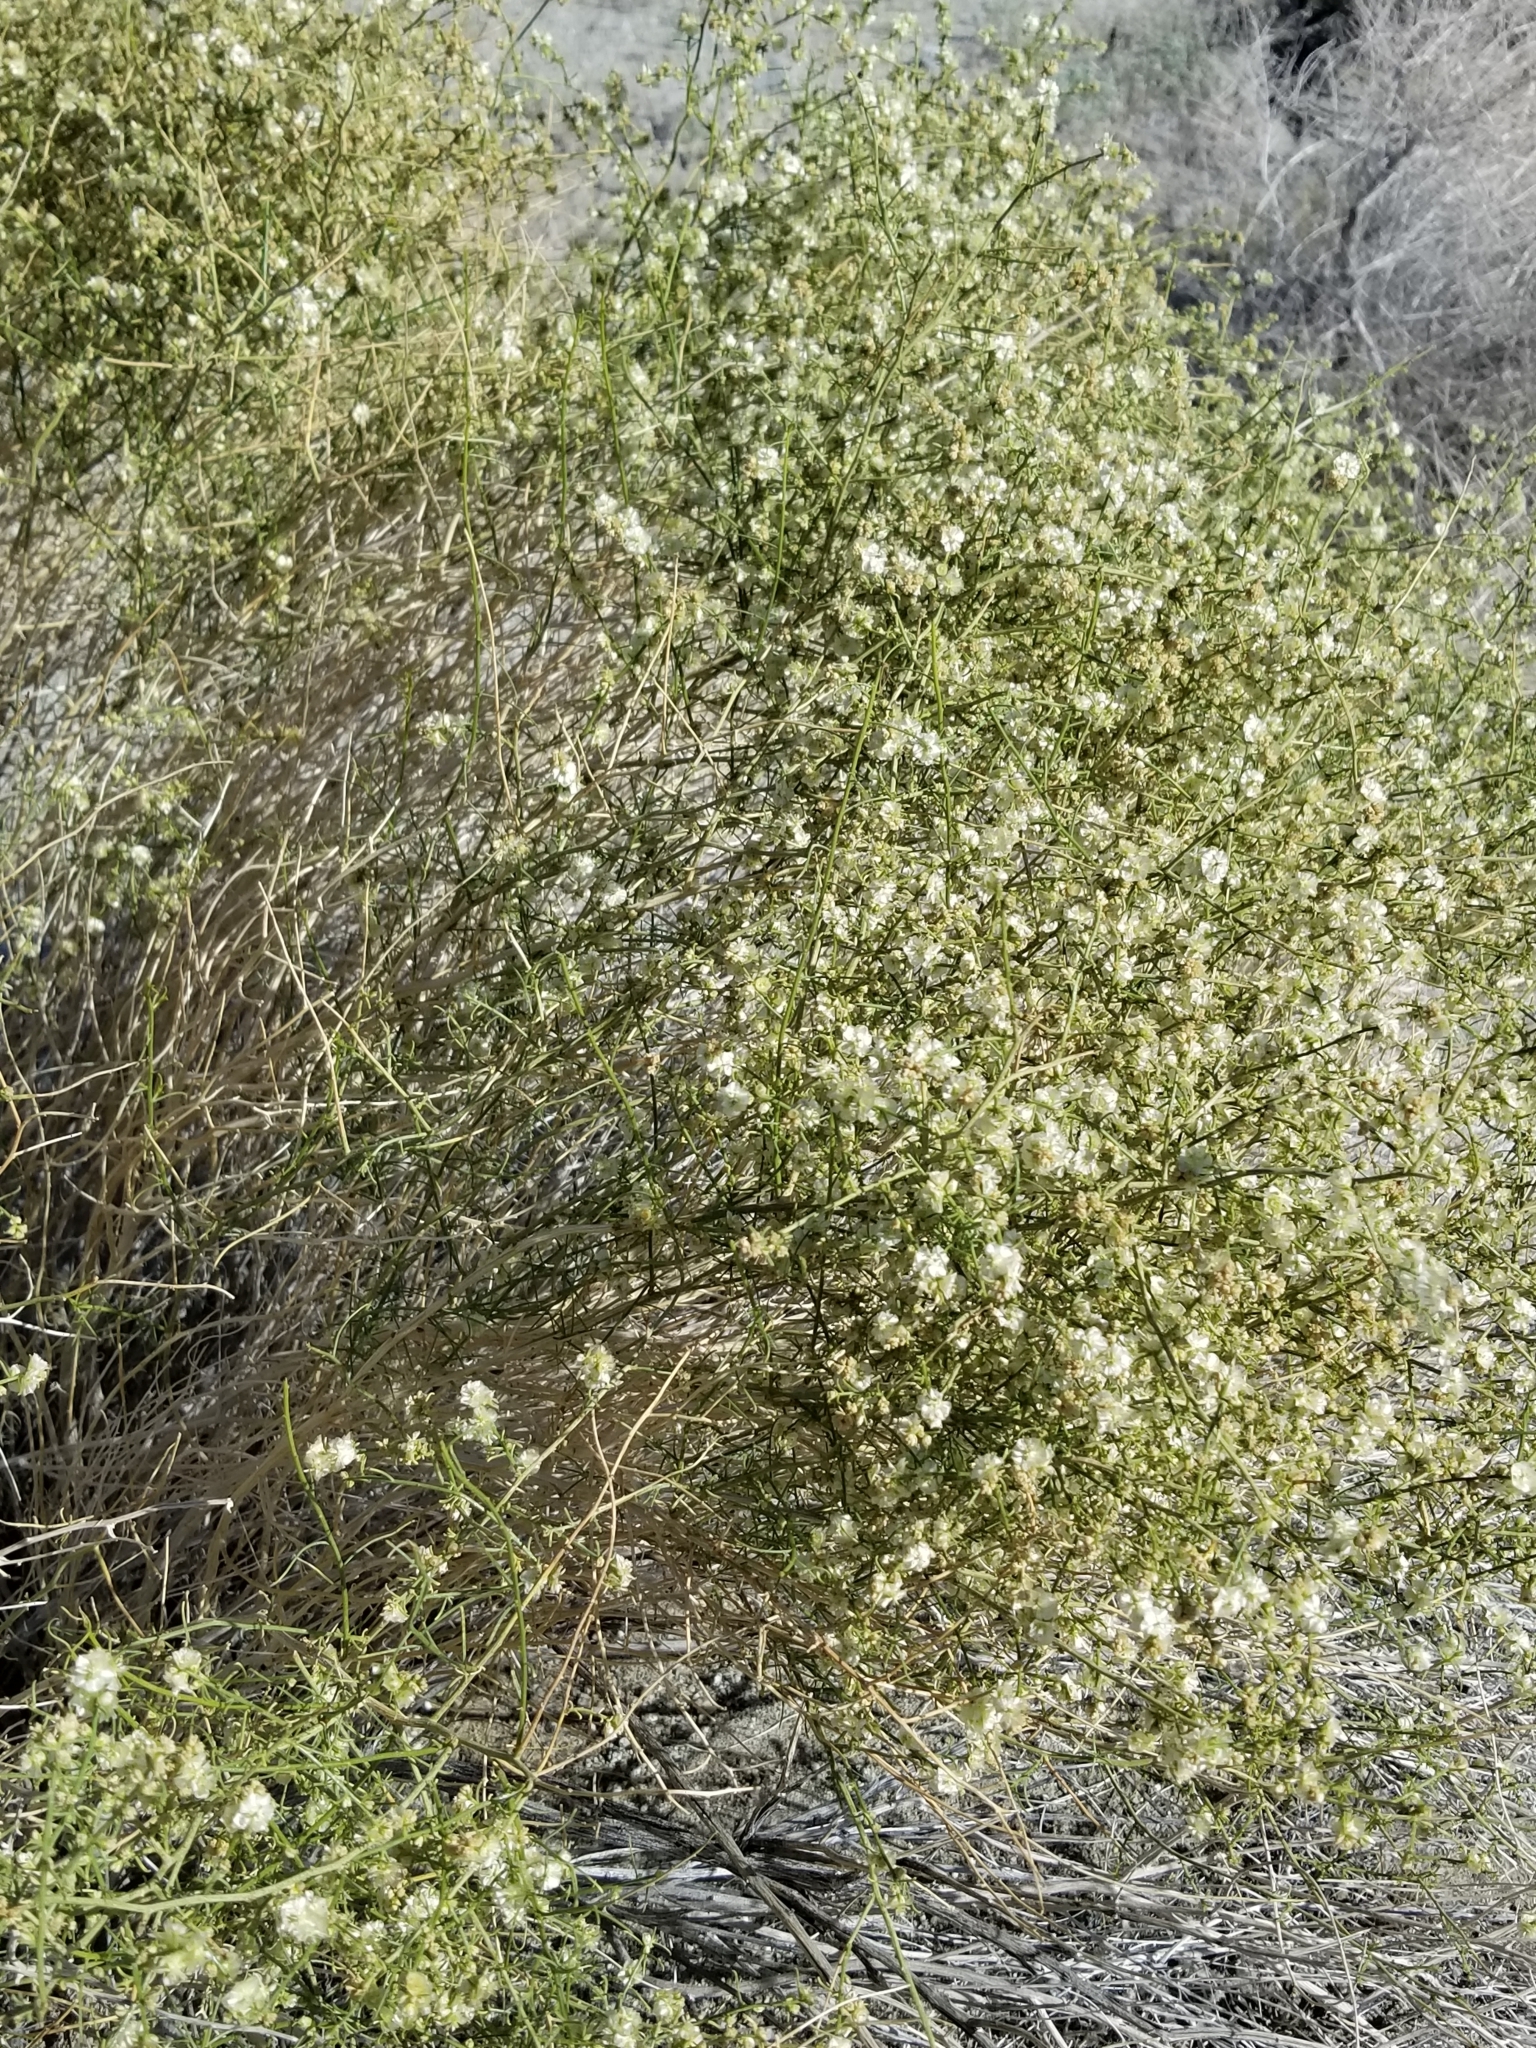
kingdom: Plantae
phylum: Tracheophyta
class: Magnoliopsida
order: Asterales
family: Asteraceae
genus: Ambrosia
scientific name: Ambrosia salsola
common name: Burrobrush
